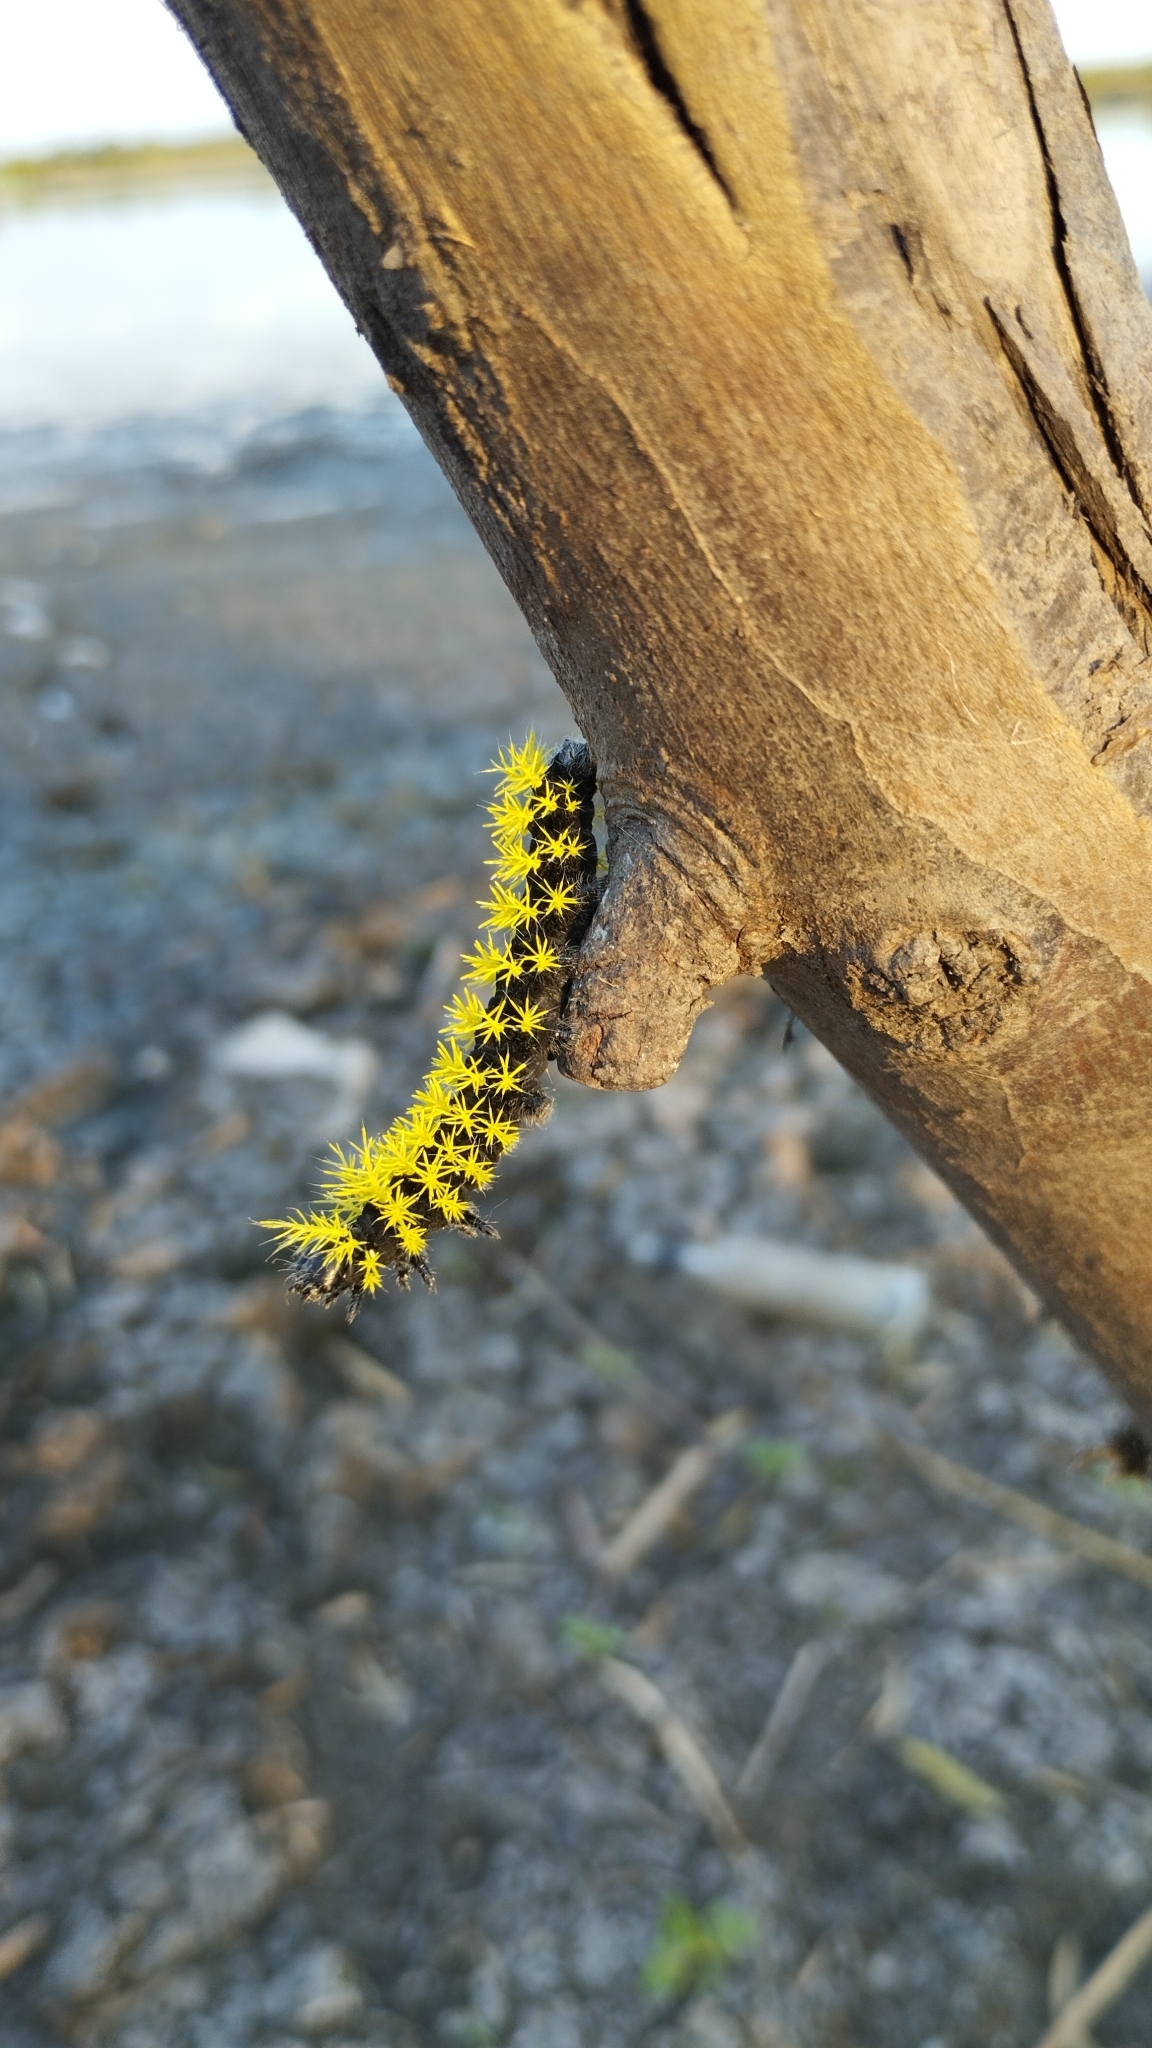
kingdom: Animalia
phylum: Arthropoda
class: Insecta
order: Lepidoptera
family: Saturniidae
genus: Leucanella
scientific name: Leucanella viridescens
